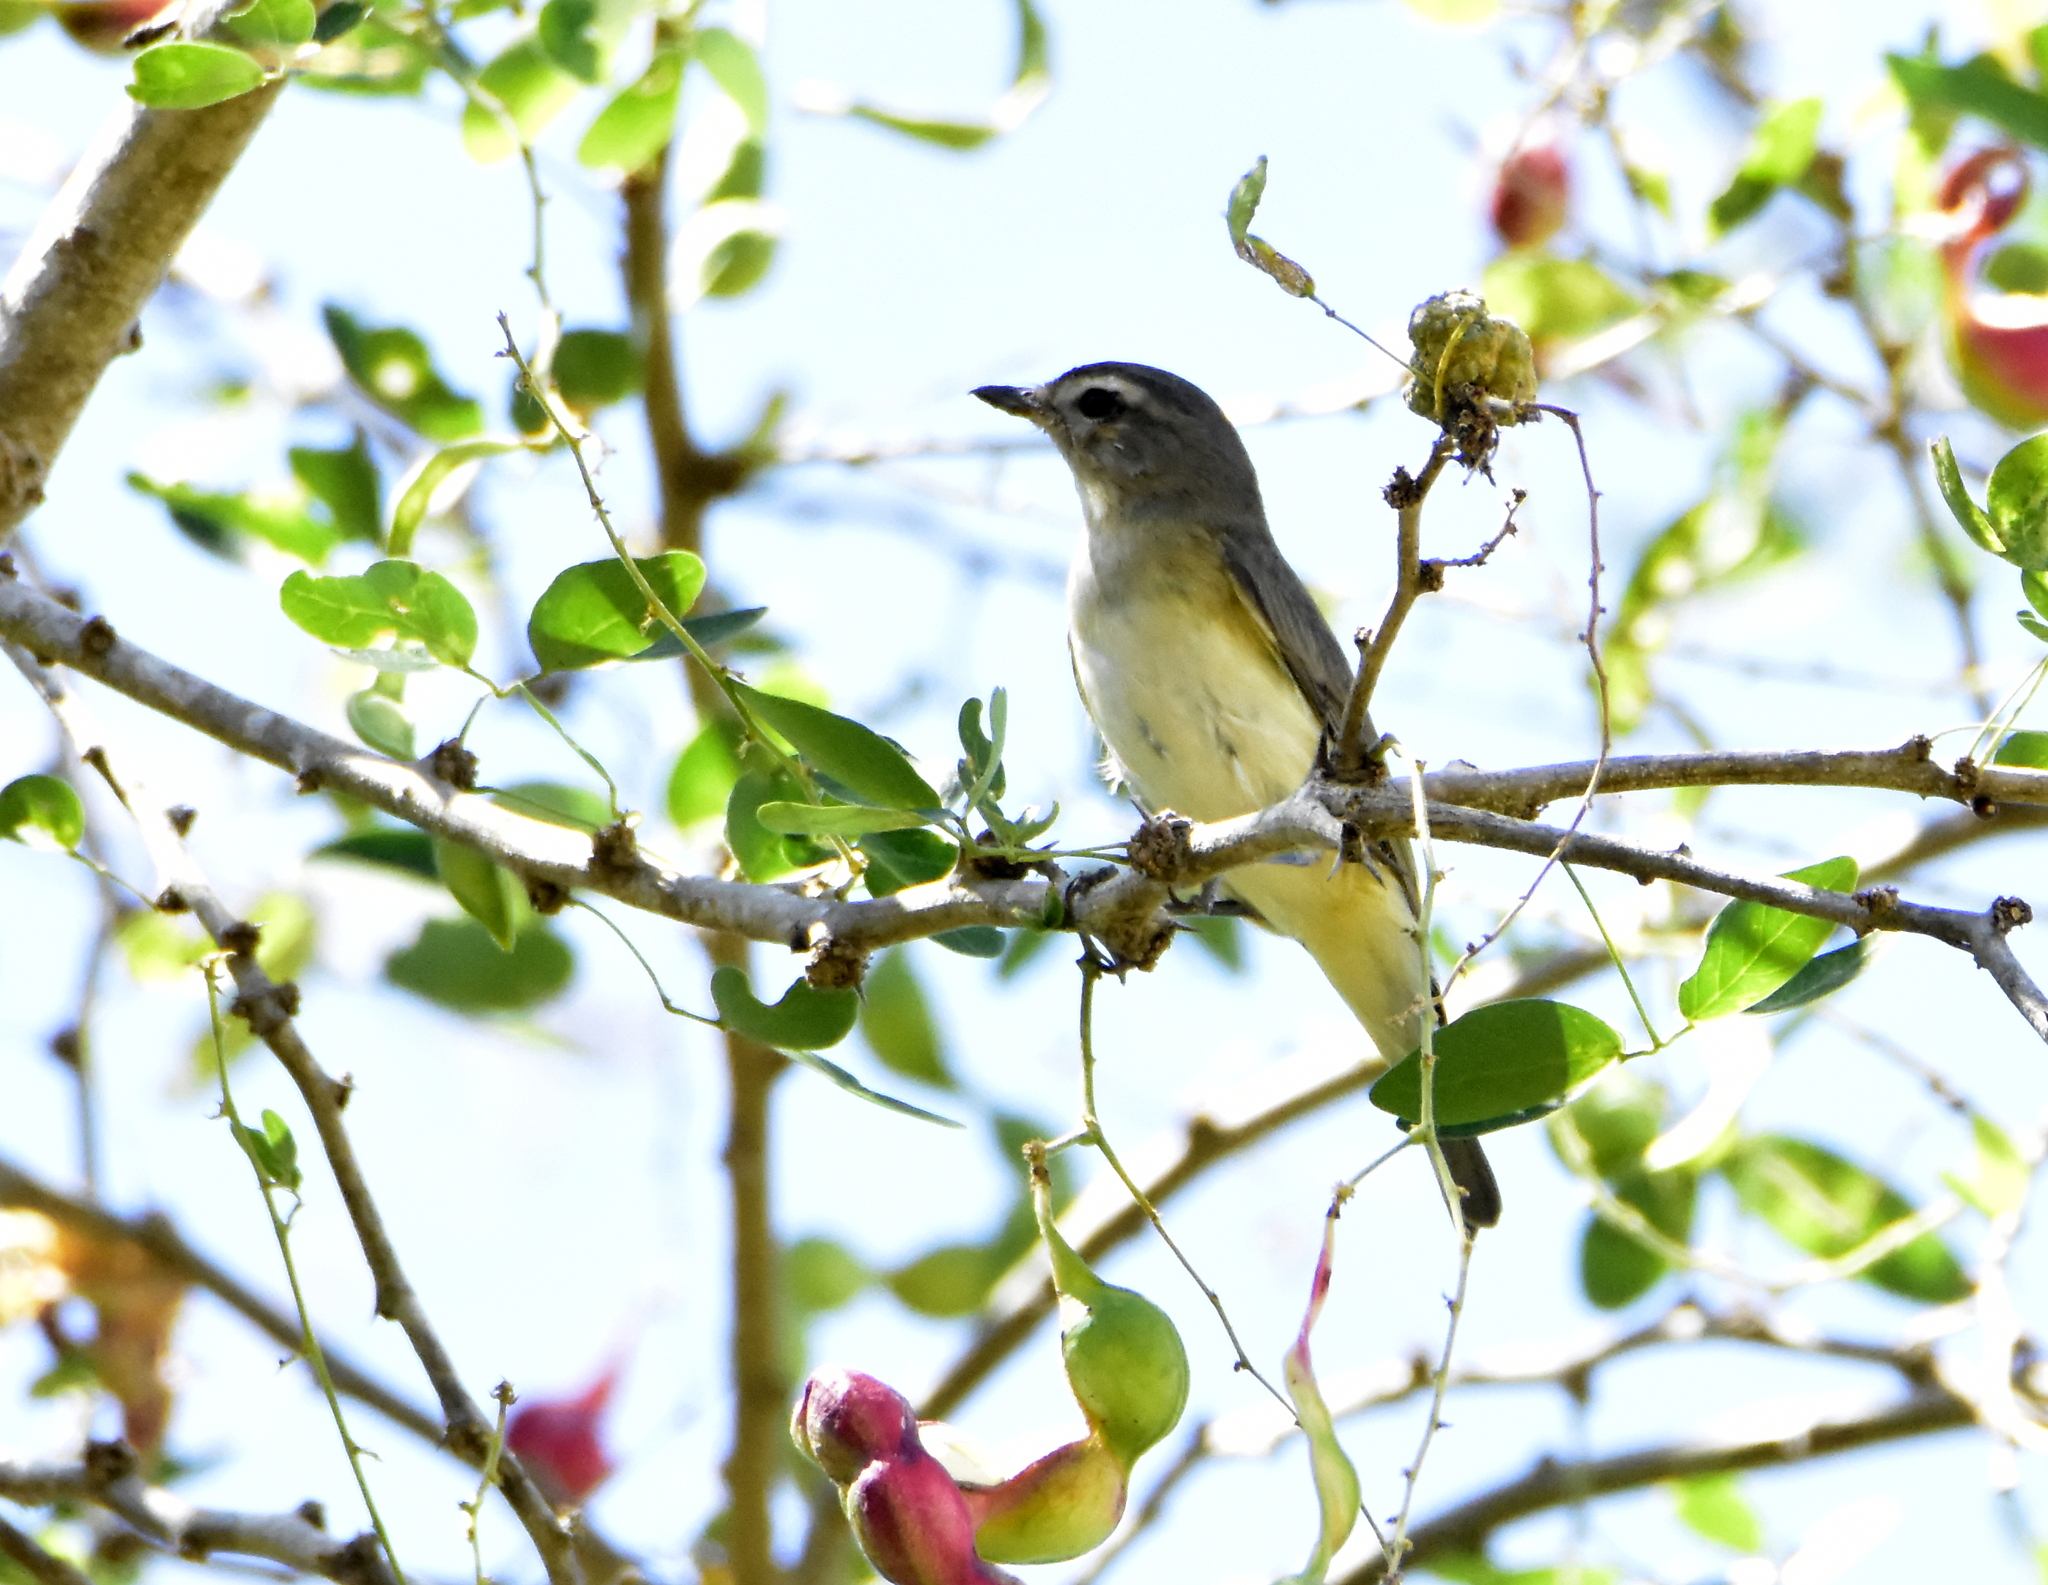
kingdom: Animalia
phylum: Chordata
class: Aves
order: Passeriformes
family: Vireonidae
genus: Vireo
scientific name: Vireo gilvus
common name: Warbling vireo
